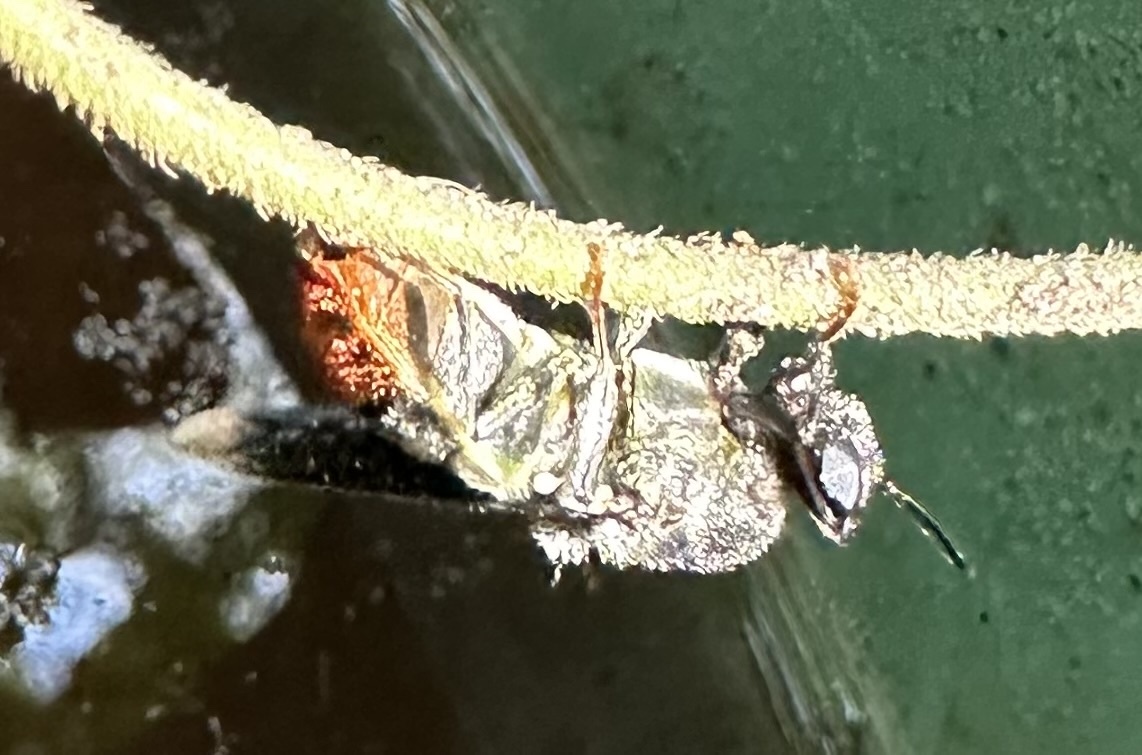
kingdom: Animalia
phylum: Arthropoda
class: Insecta
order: Diptera
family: Stratiomyidae
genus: Nyassamyia
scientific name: Nyassamyia andreniformis
